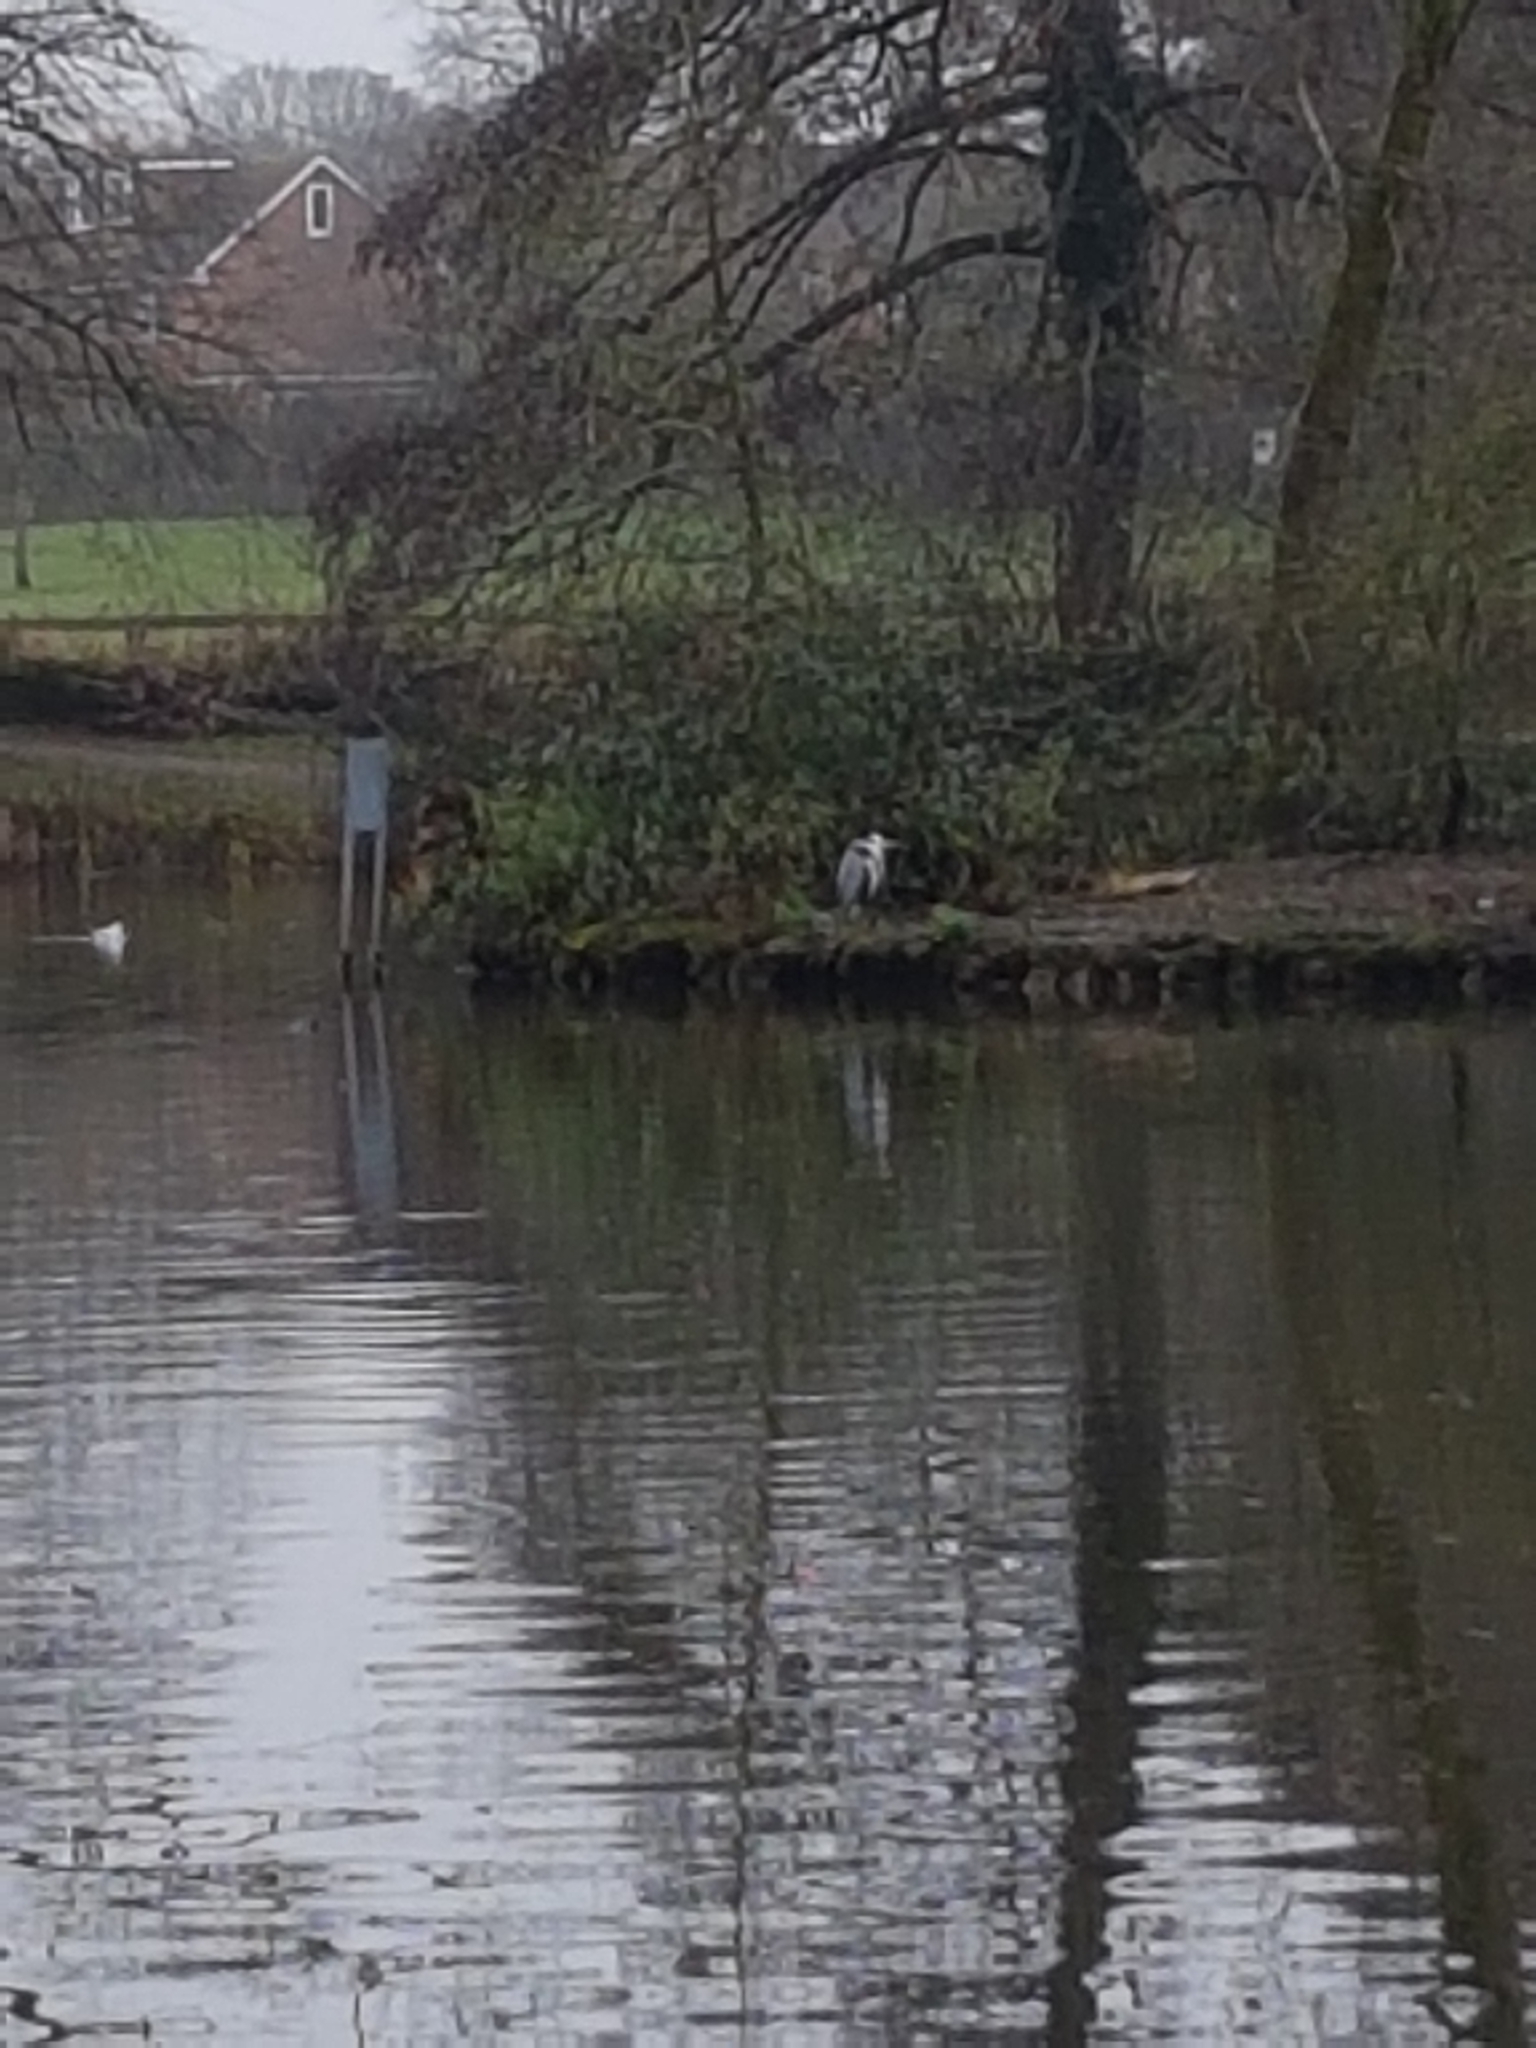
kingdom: Animalia
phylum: Chordata
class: Aves
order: Pelecaniformes
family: Ardeidae
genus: Ardea
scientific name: Ardea cinerea
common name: Grey heron
